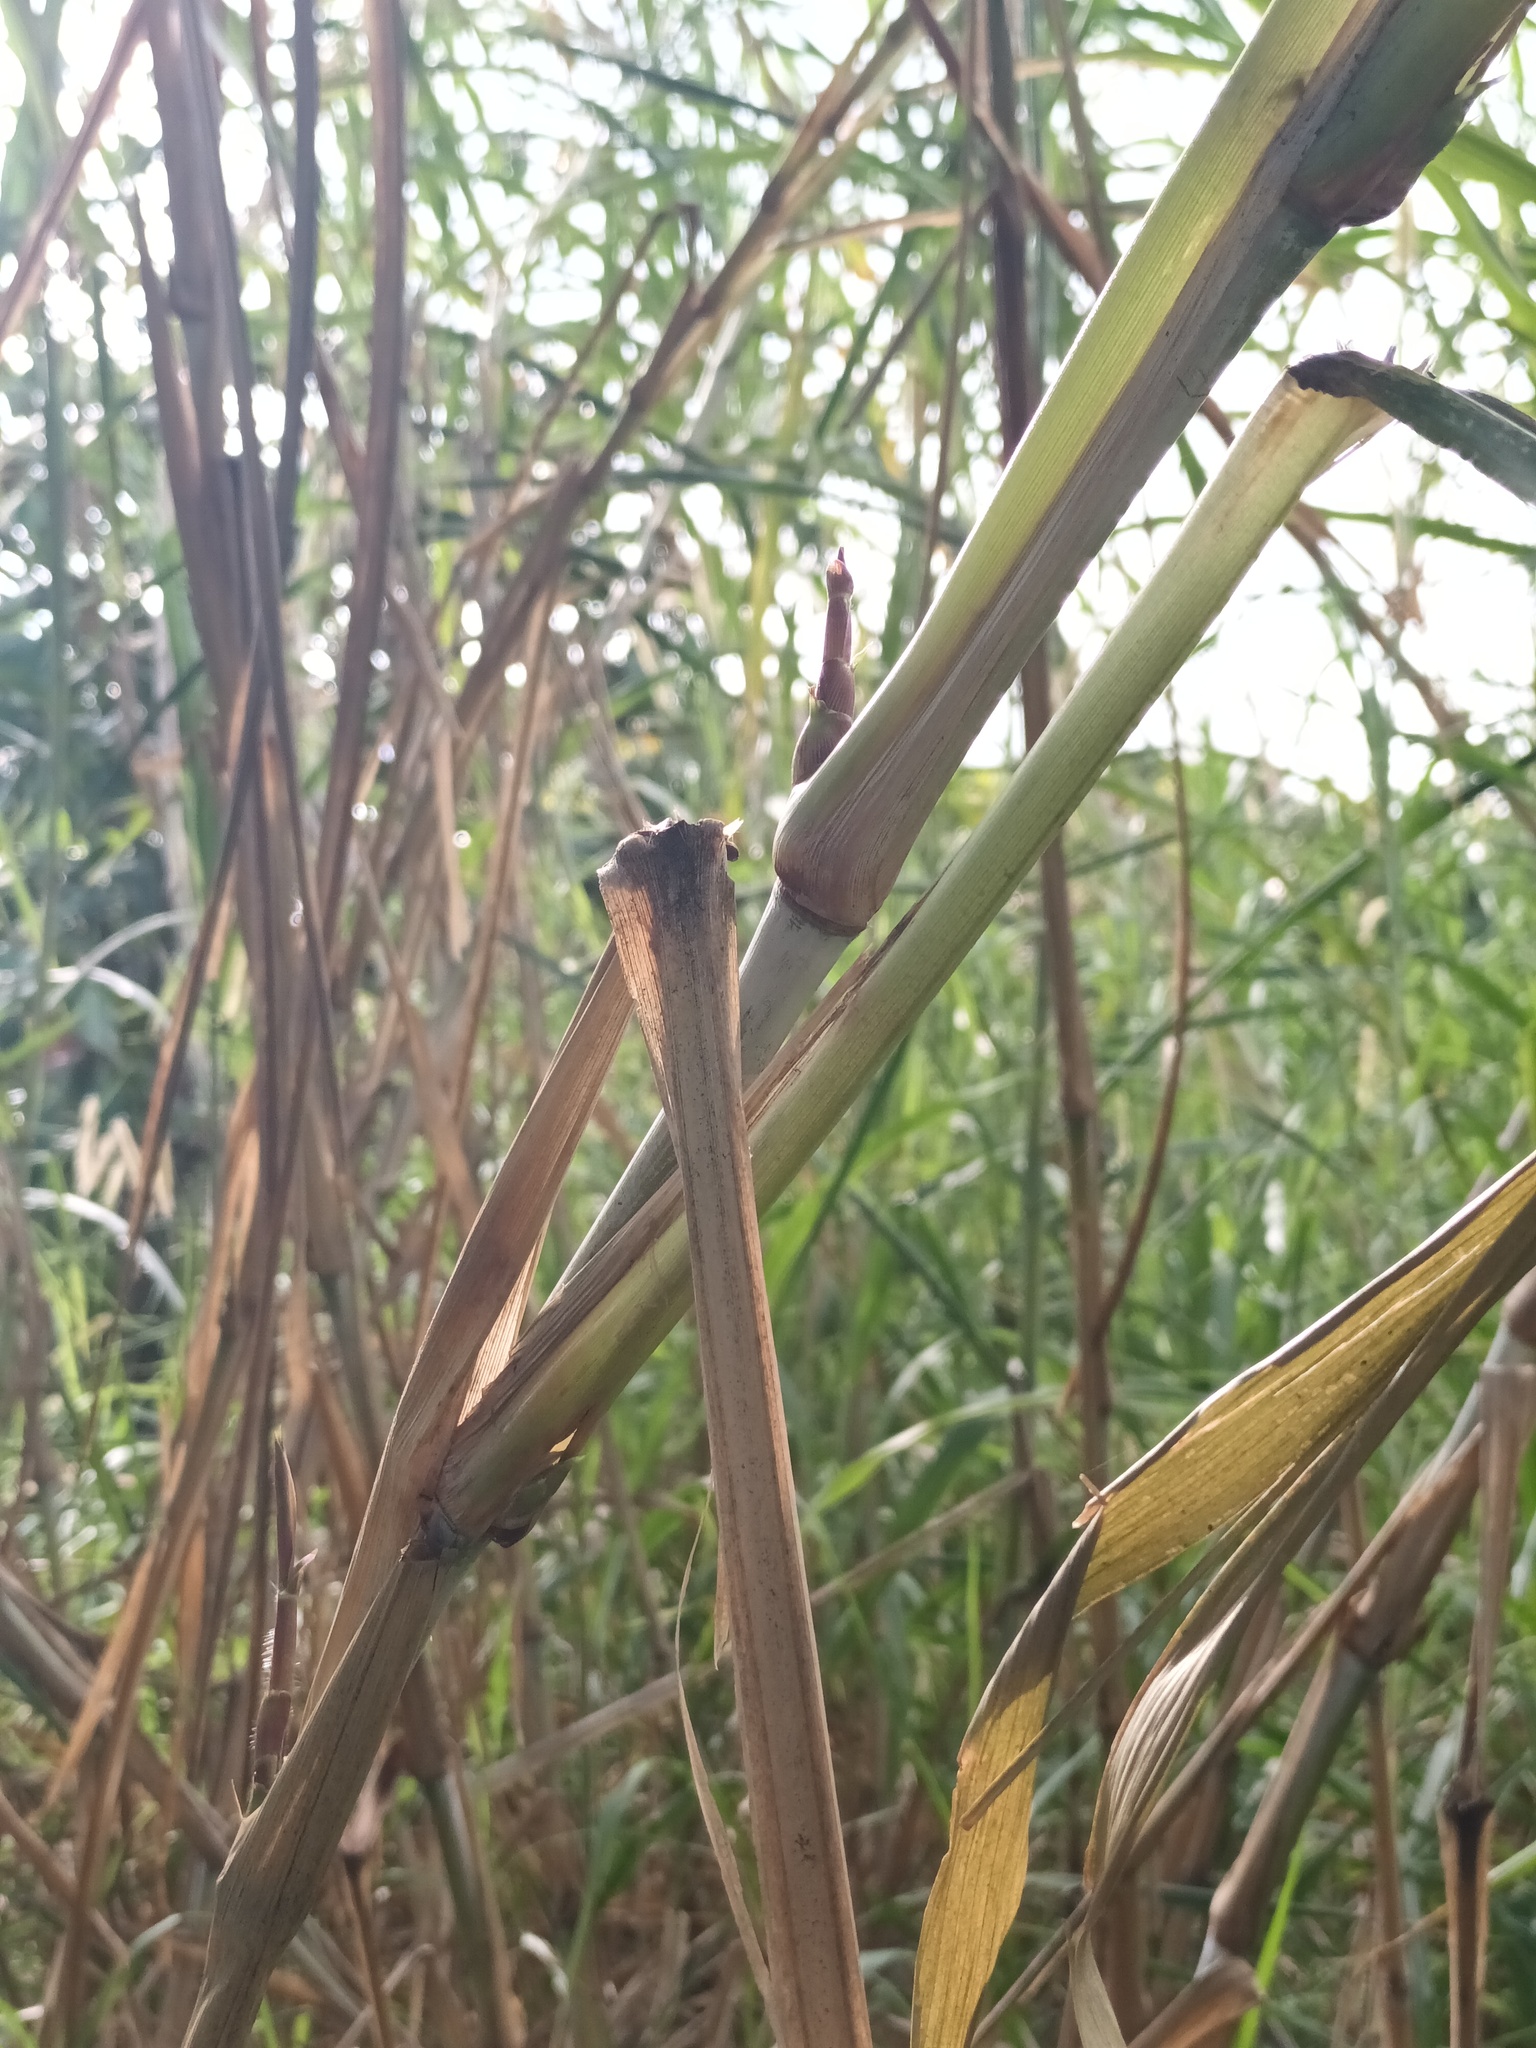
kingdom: Plantae
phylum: Tracheophyta
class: Liliopsida
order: Poales
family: Poaceae
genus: Cenchrus
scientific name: Cenchrus purpureus
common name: Elephant grass
